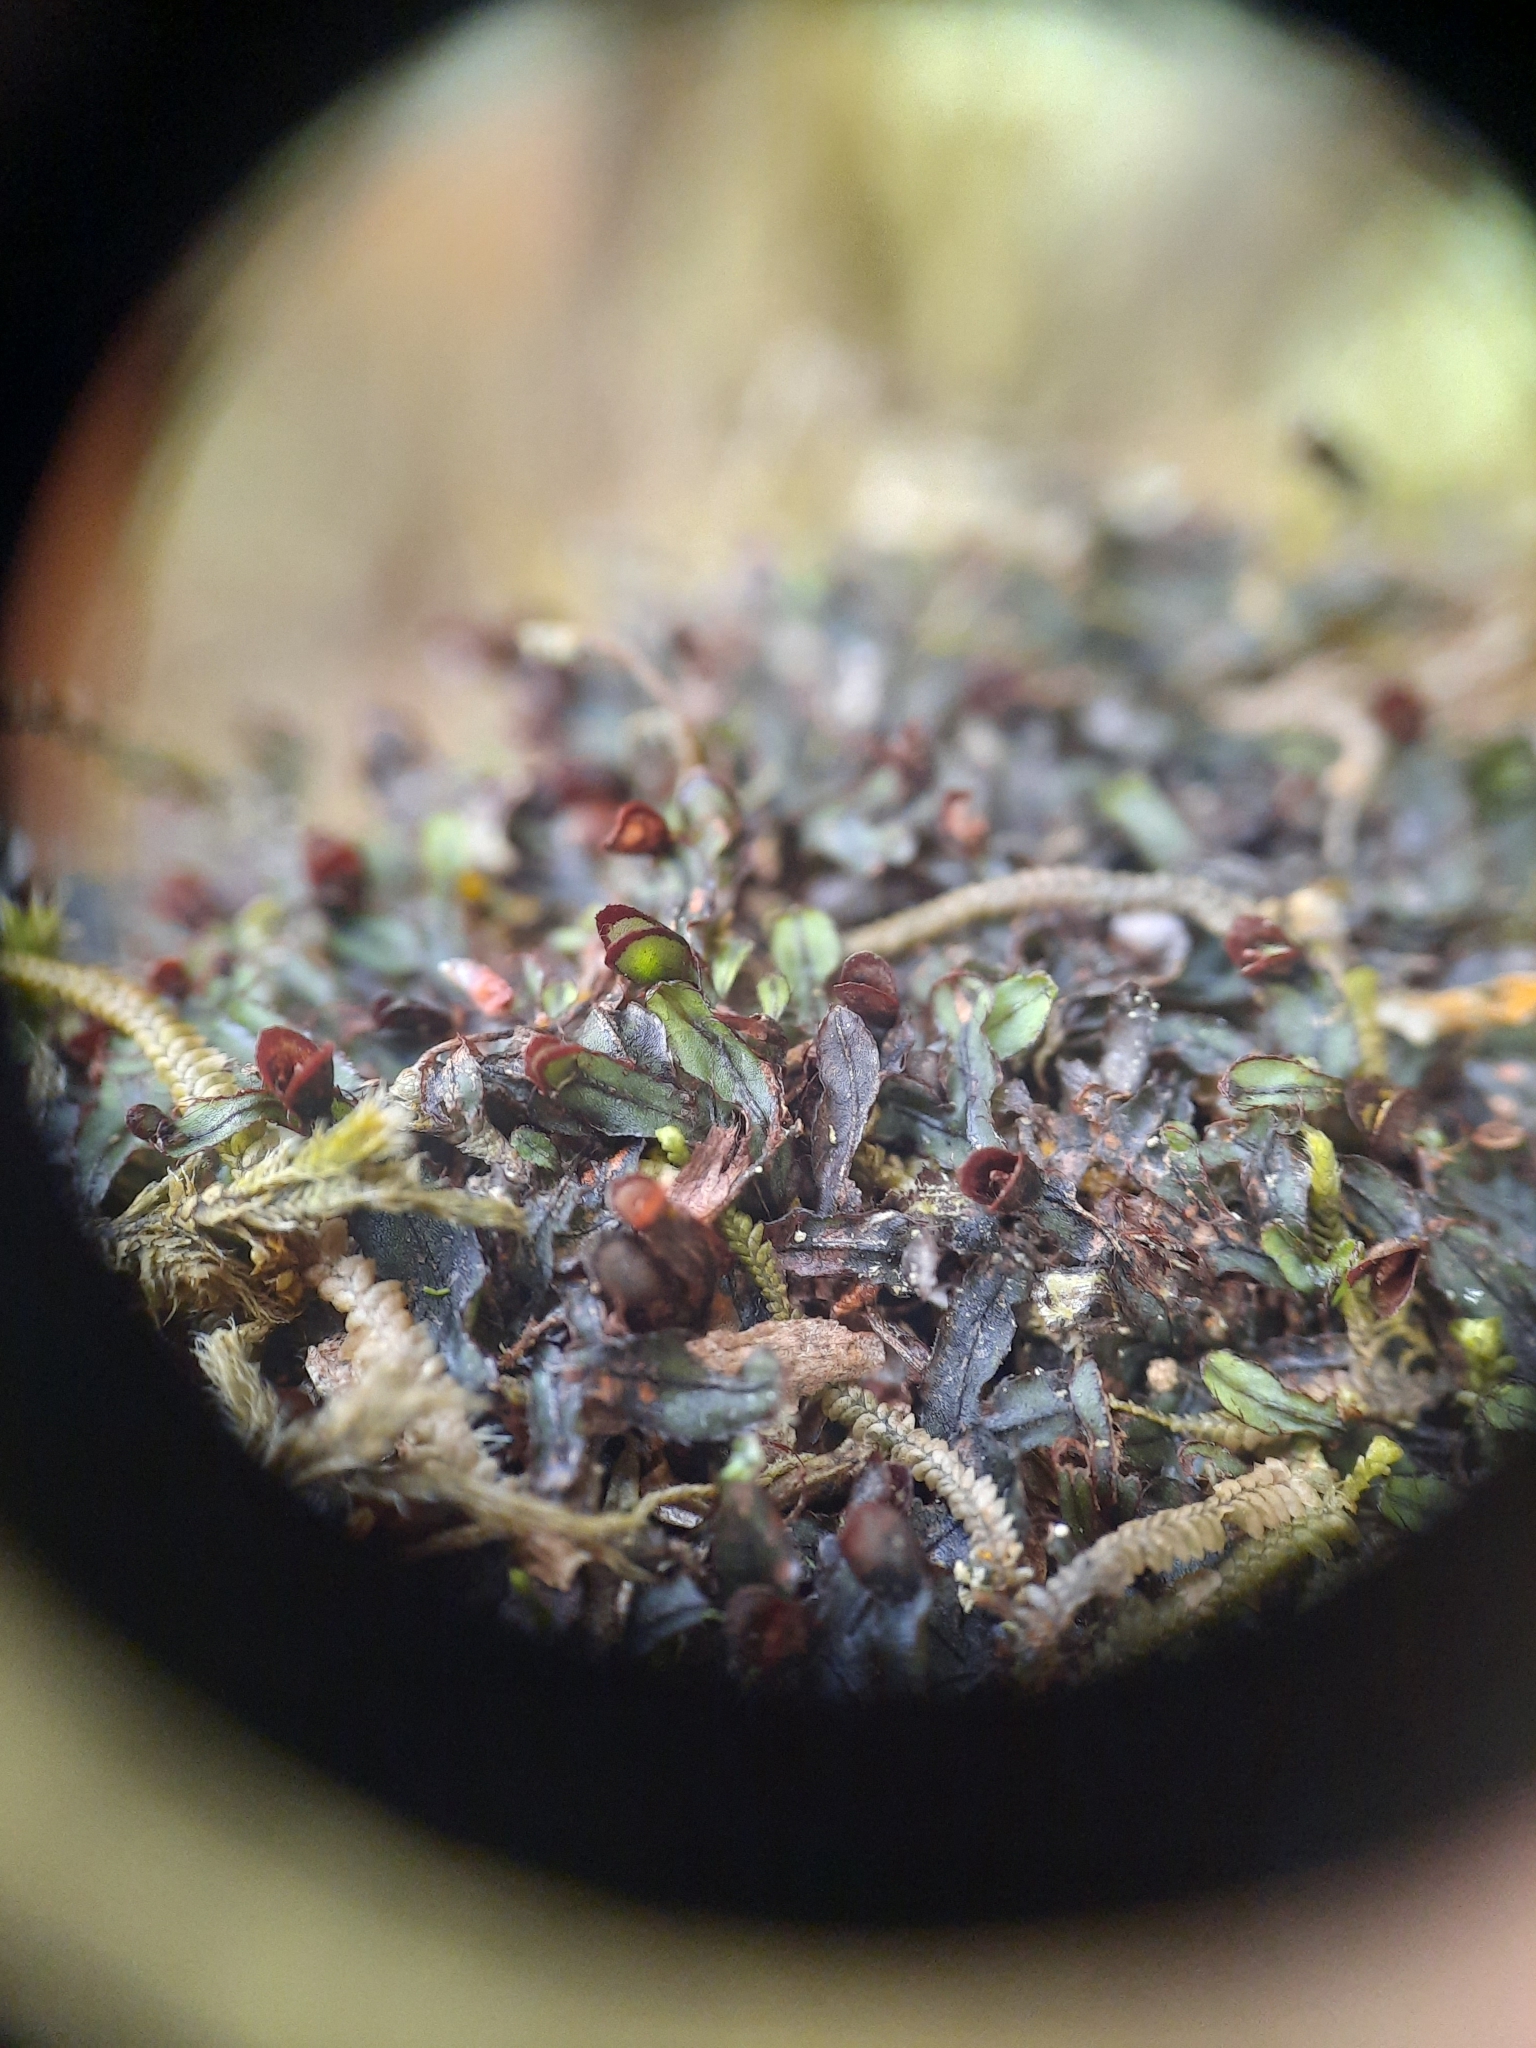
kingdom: Plantae
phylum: Tracheophyta
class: Polypodiopsida
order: Hymenophyllales
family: Hymenophyllaceae
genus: Hymenophyllum
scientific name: Hymenophyllum armstrongii
